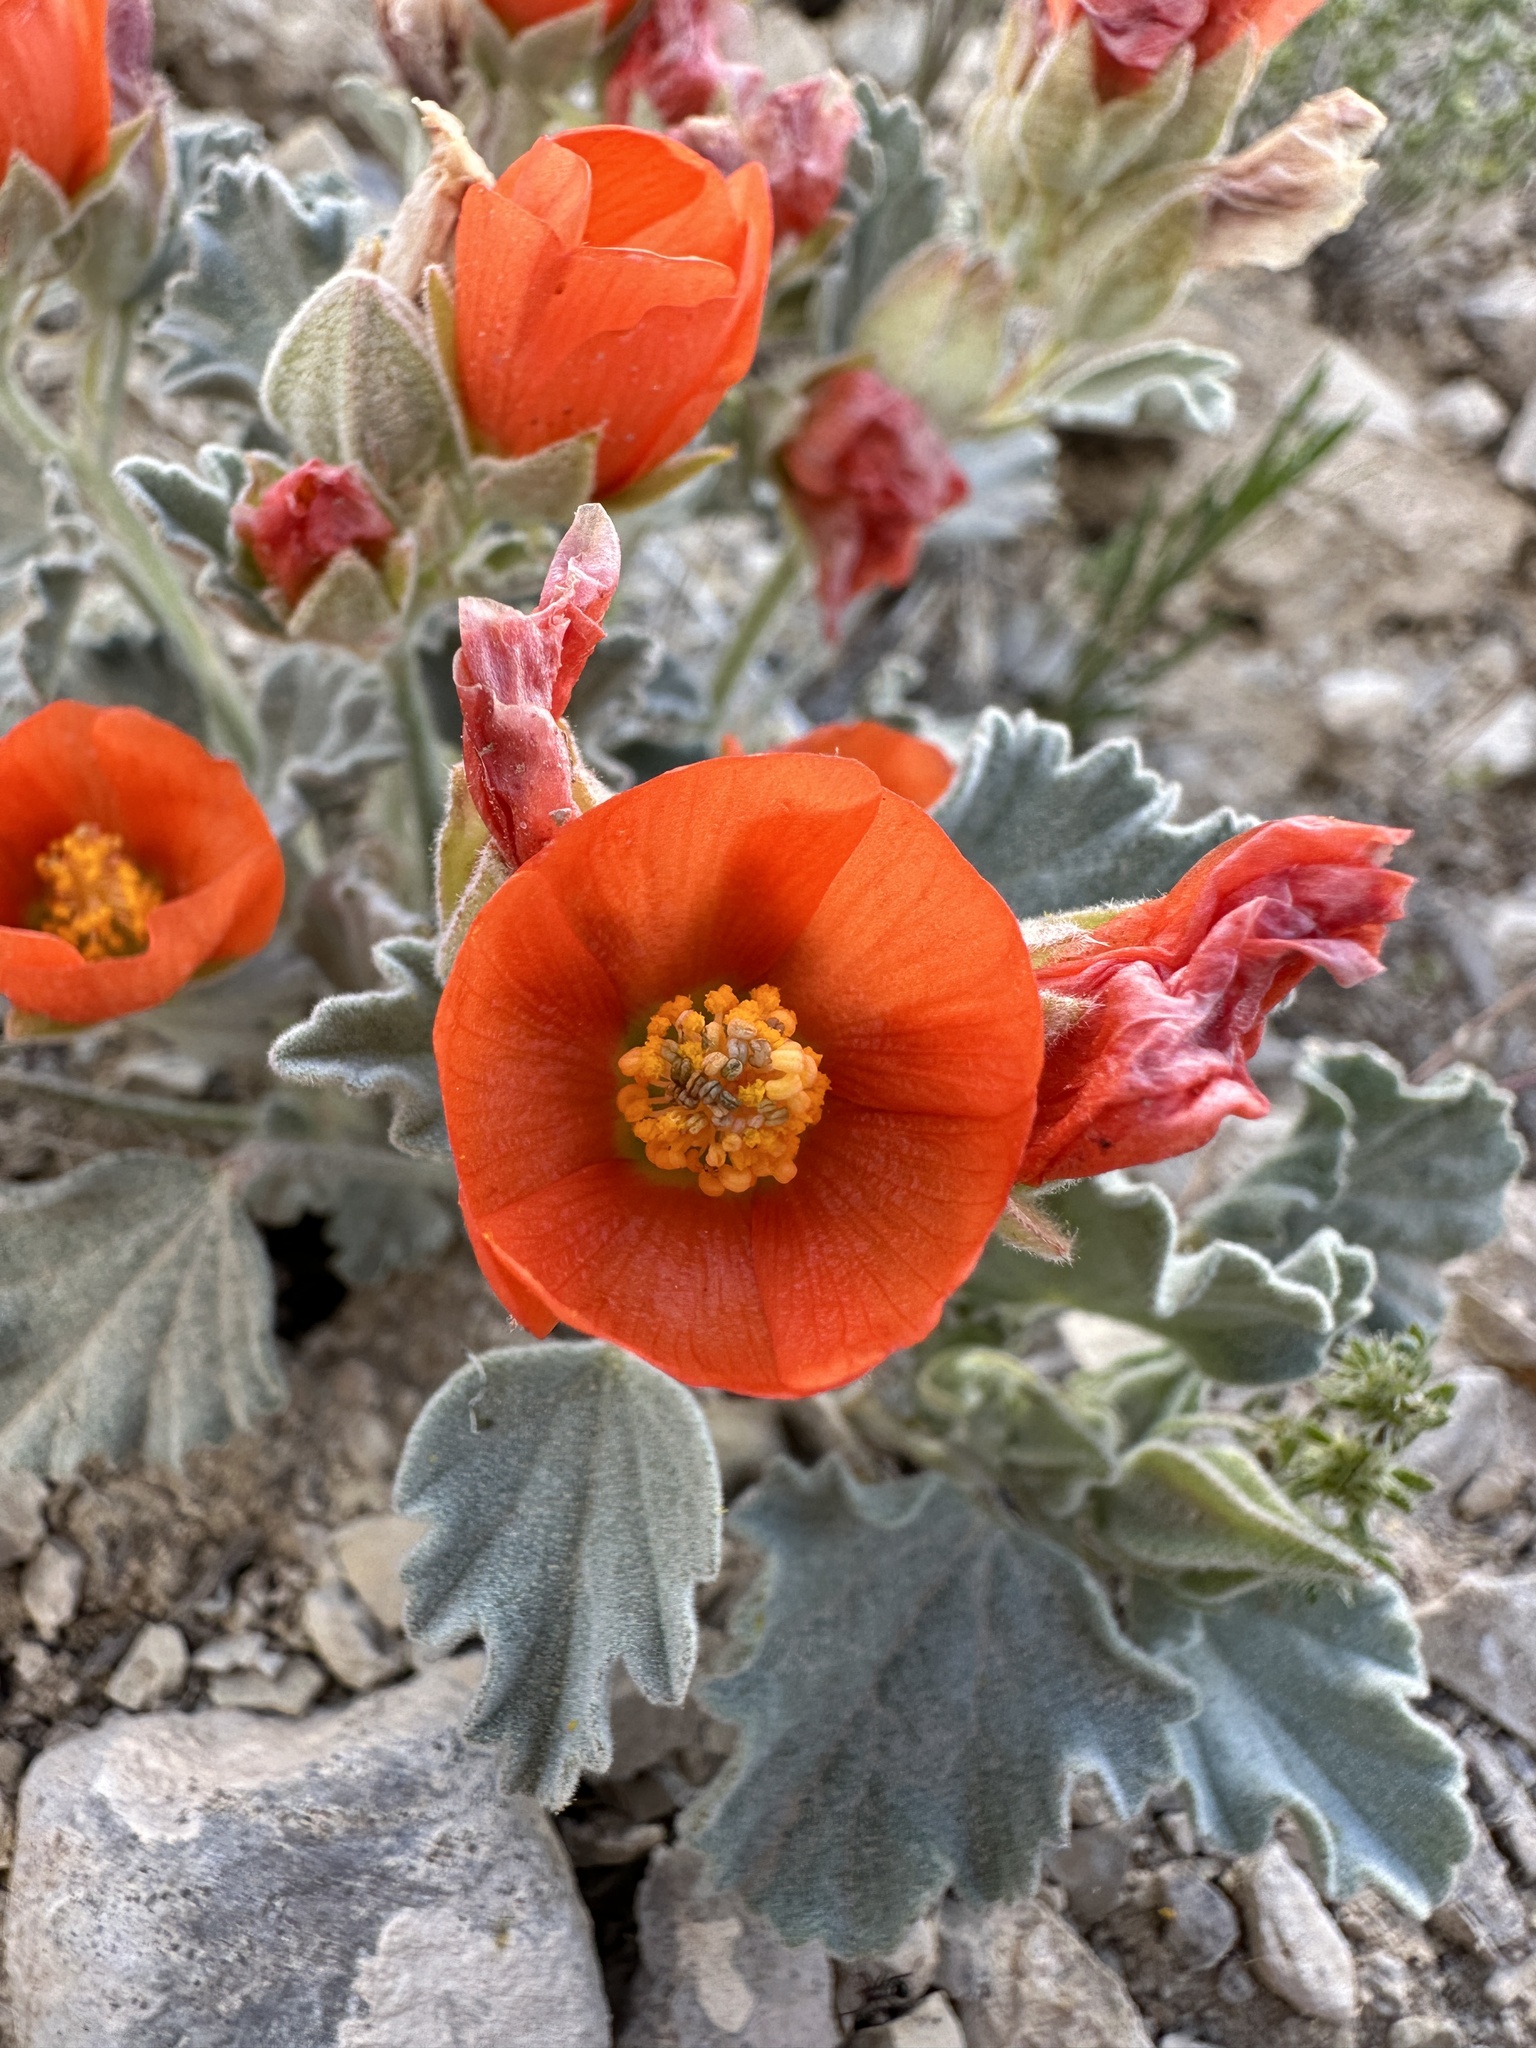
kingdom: Plantae
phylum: Tracheophyta
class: Magnoliopsida
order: Malvales
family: Malvaceae
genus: Sphaeralcea
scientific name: Sphaeralcea caespitosa
